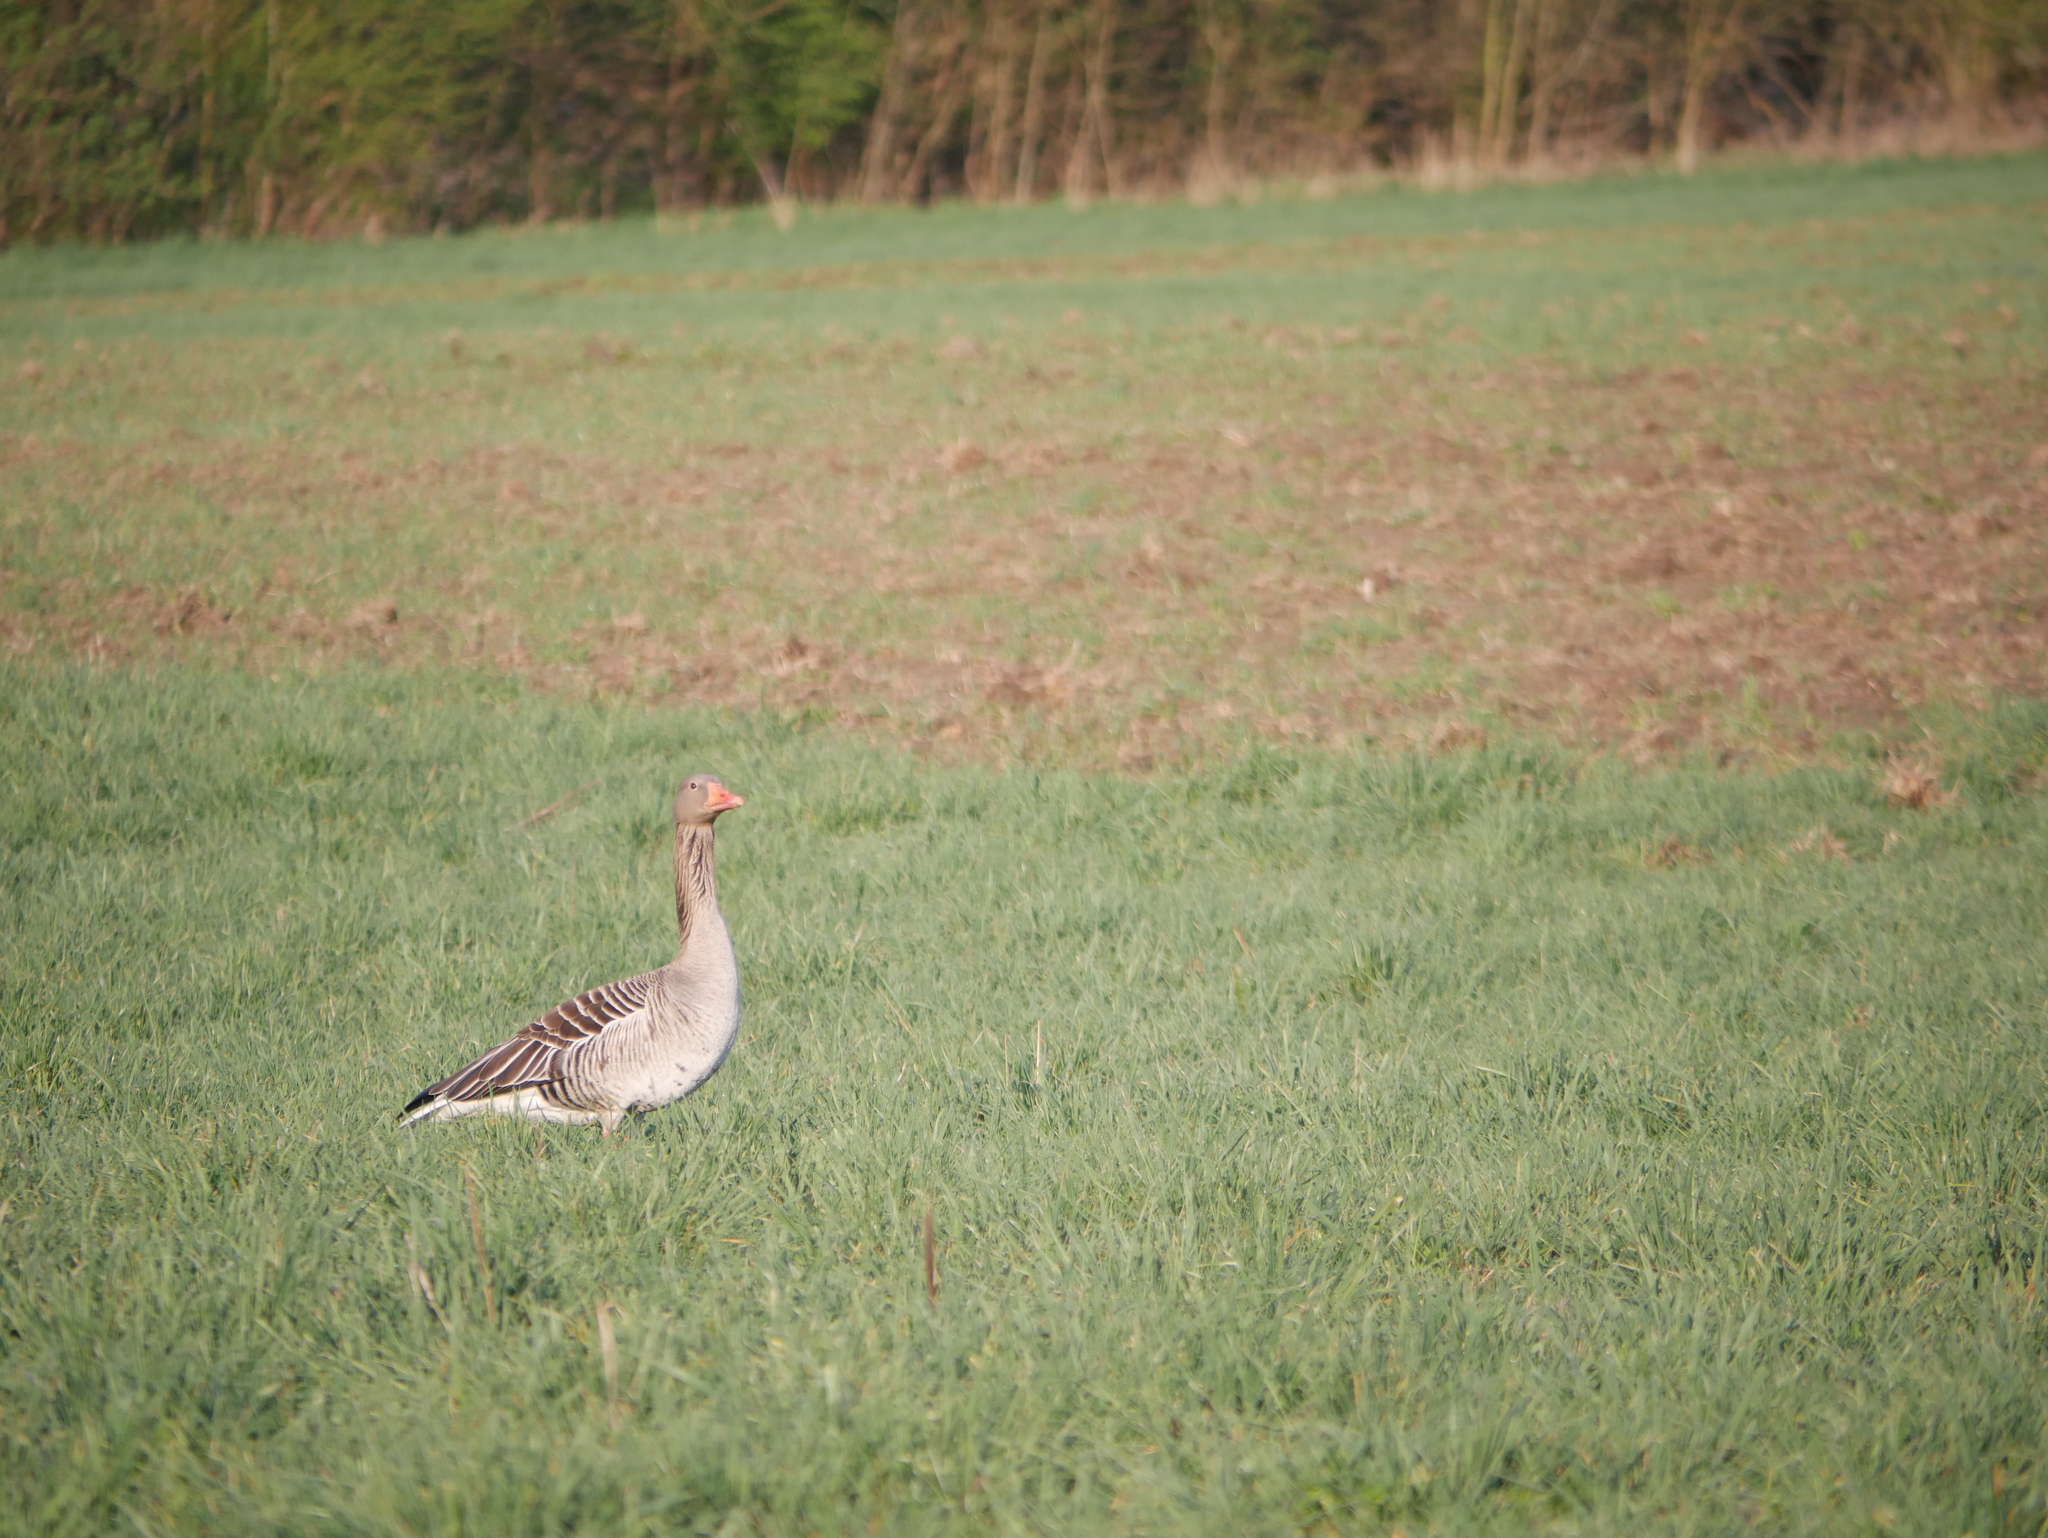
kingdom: Animalia
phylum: Chordata
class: Aves
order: Anseriformes
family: Anatidae
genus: Anser
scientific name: Anser anser
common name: Greylag goose
